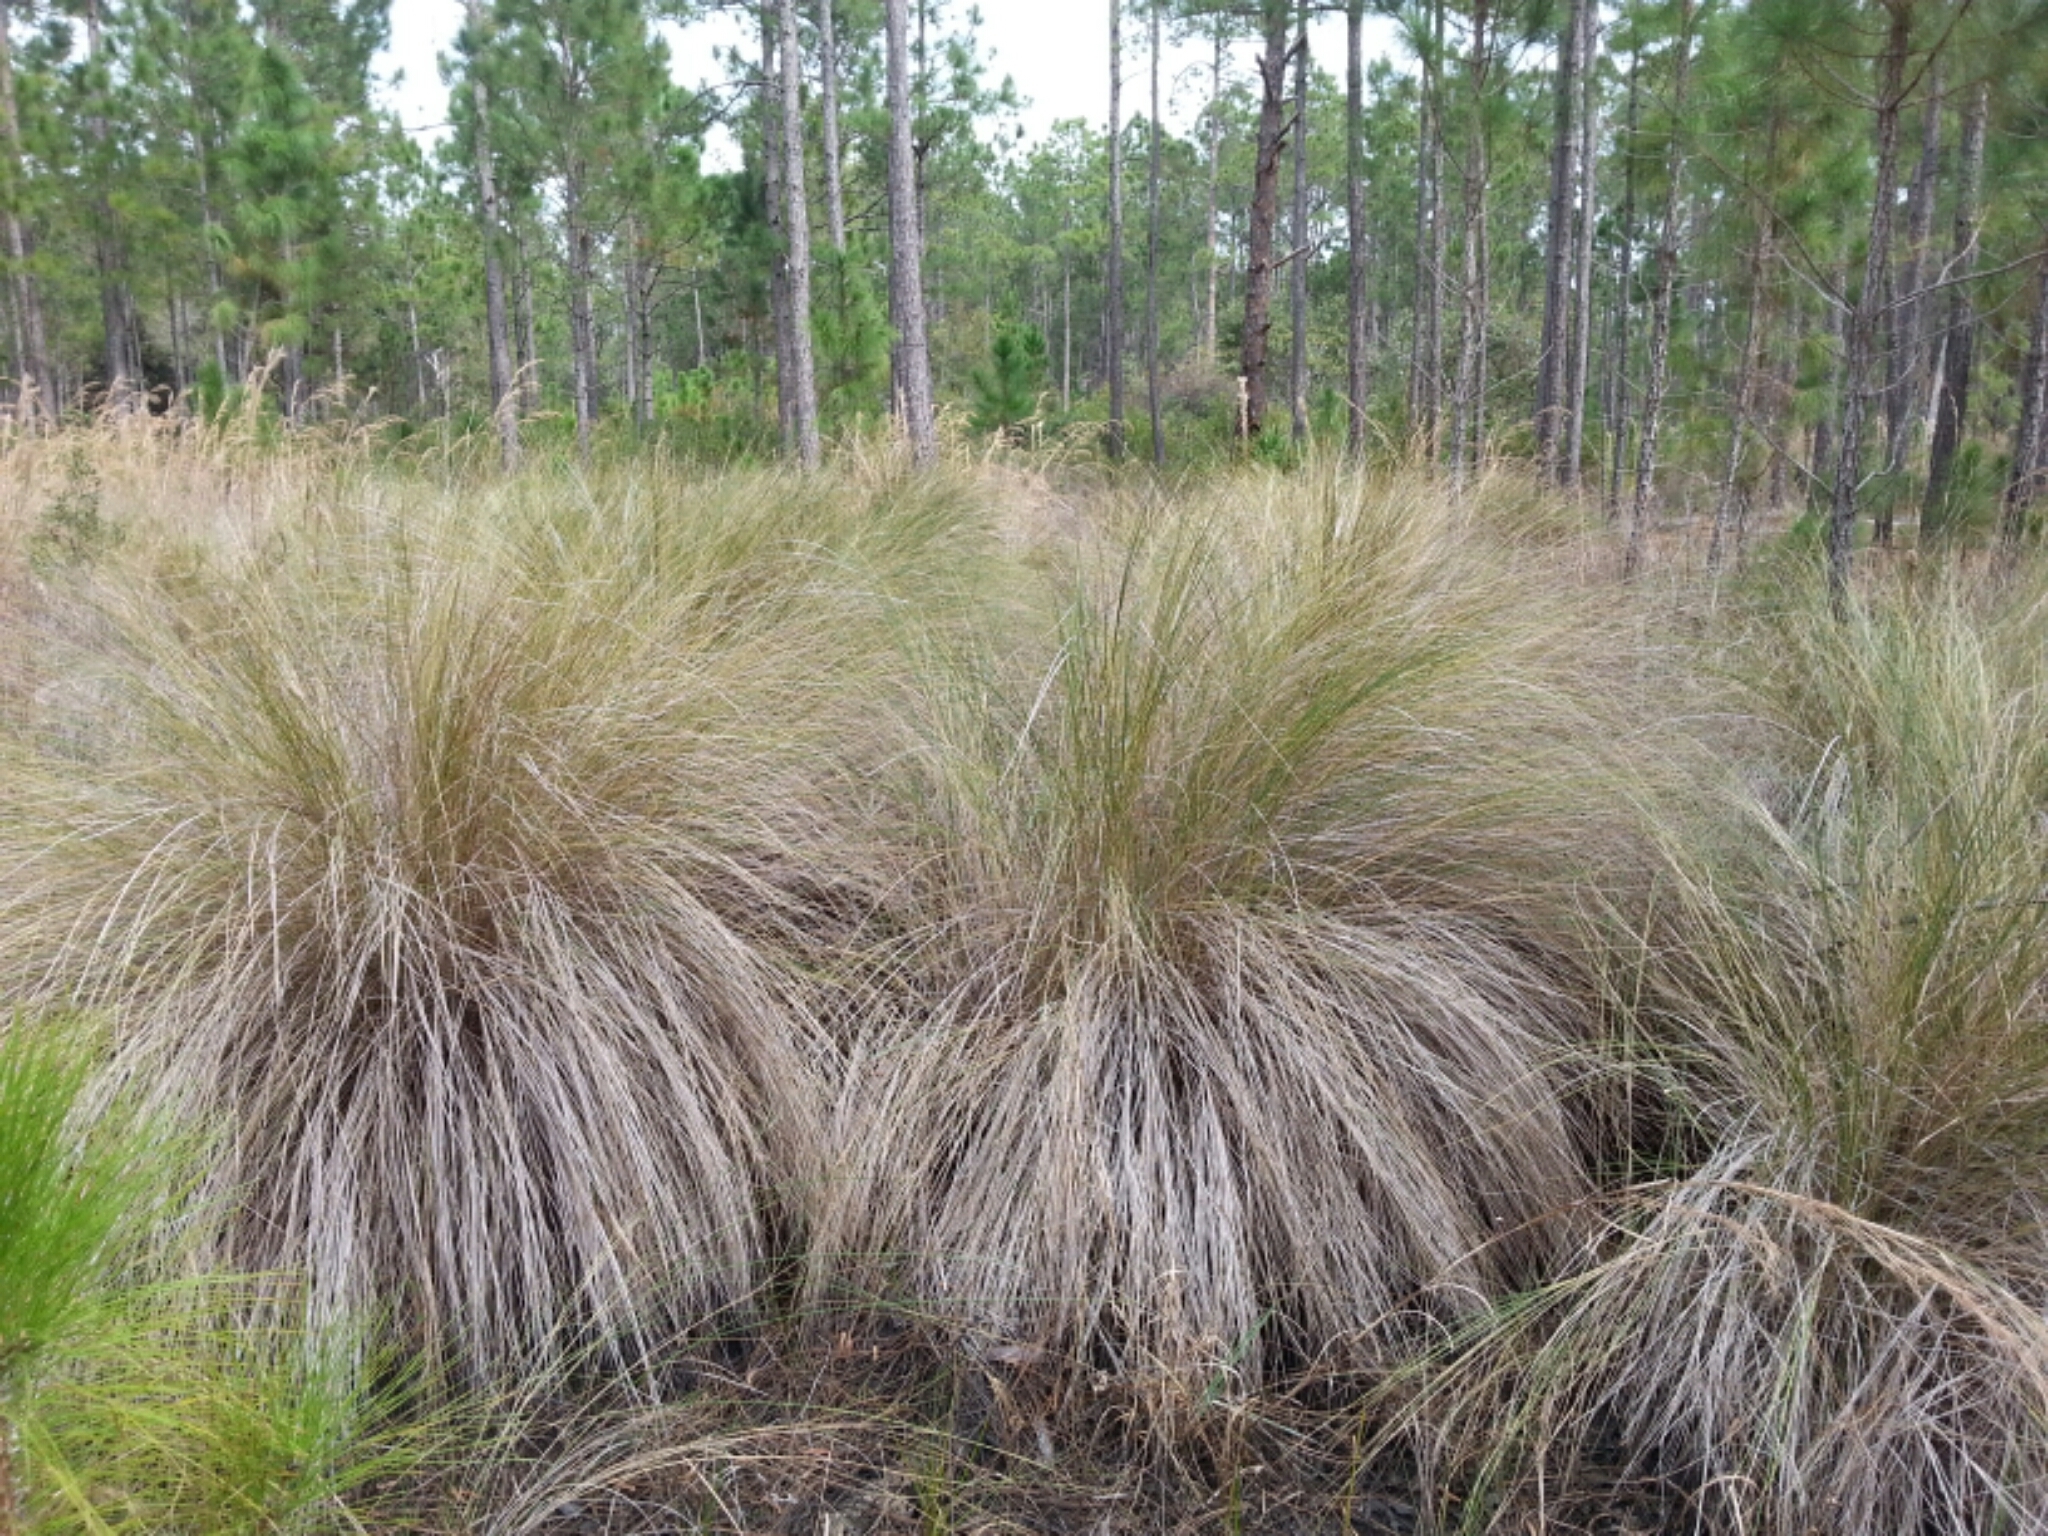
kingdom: Plantae
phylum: Tracheophyta
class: Liliopsida
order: Poales
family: Poaceae
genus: Sporobolus
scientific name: Sporobolus bakeri
